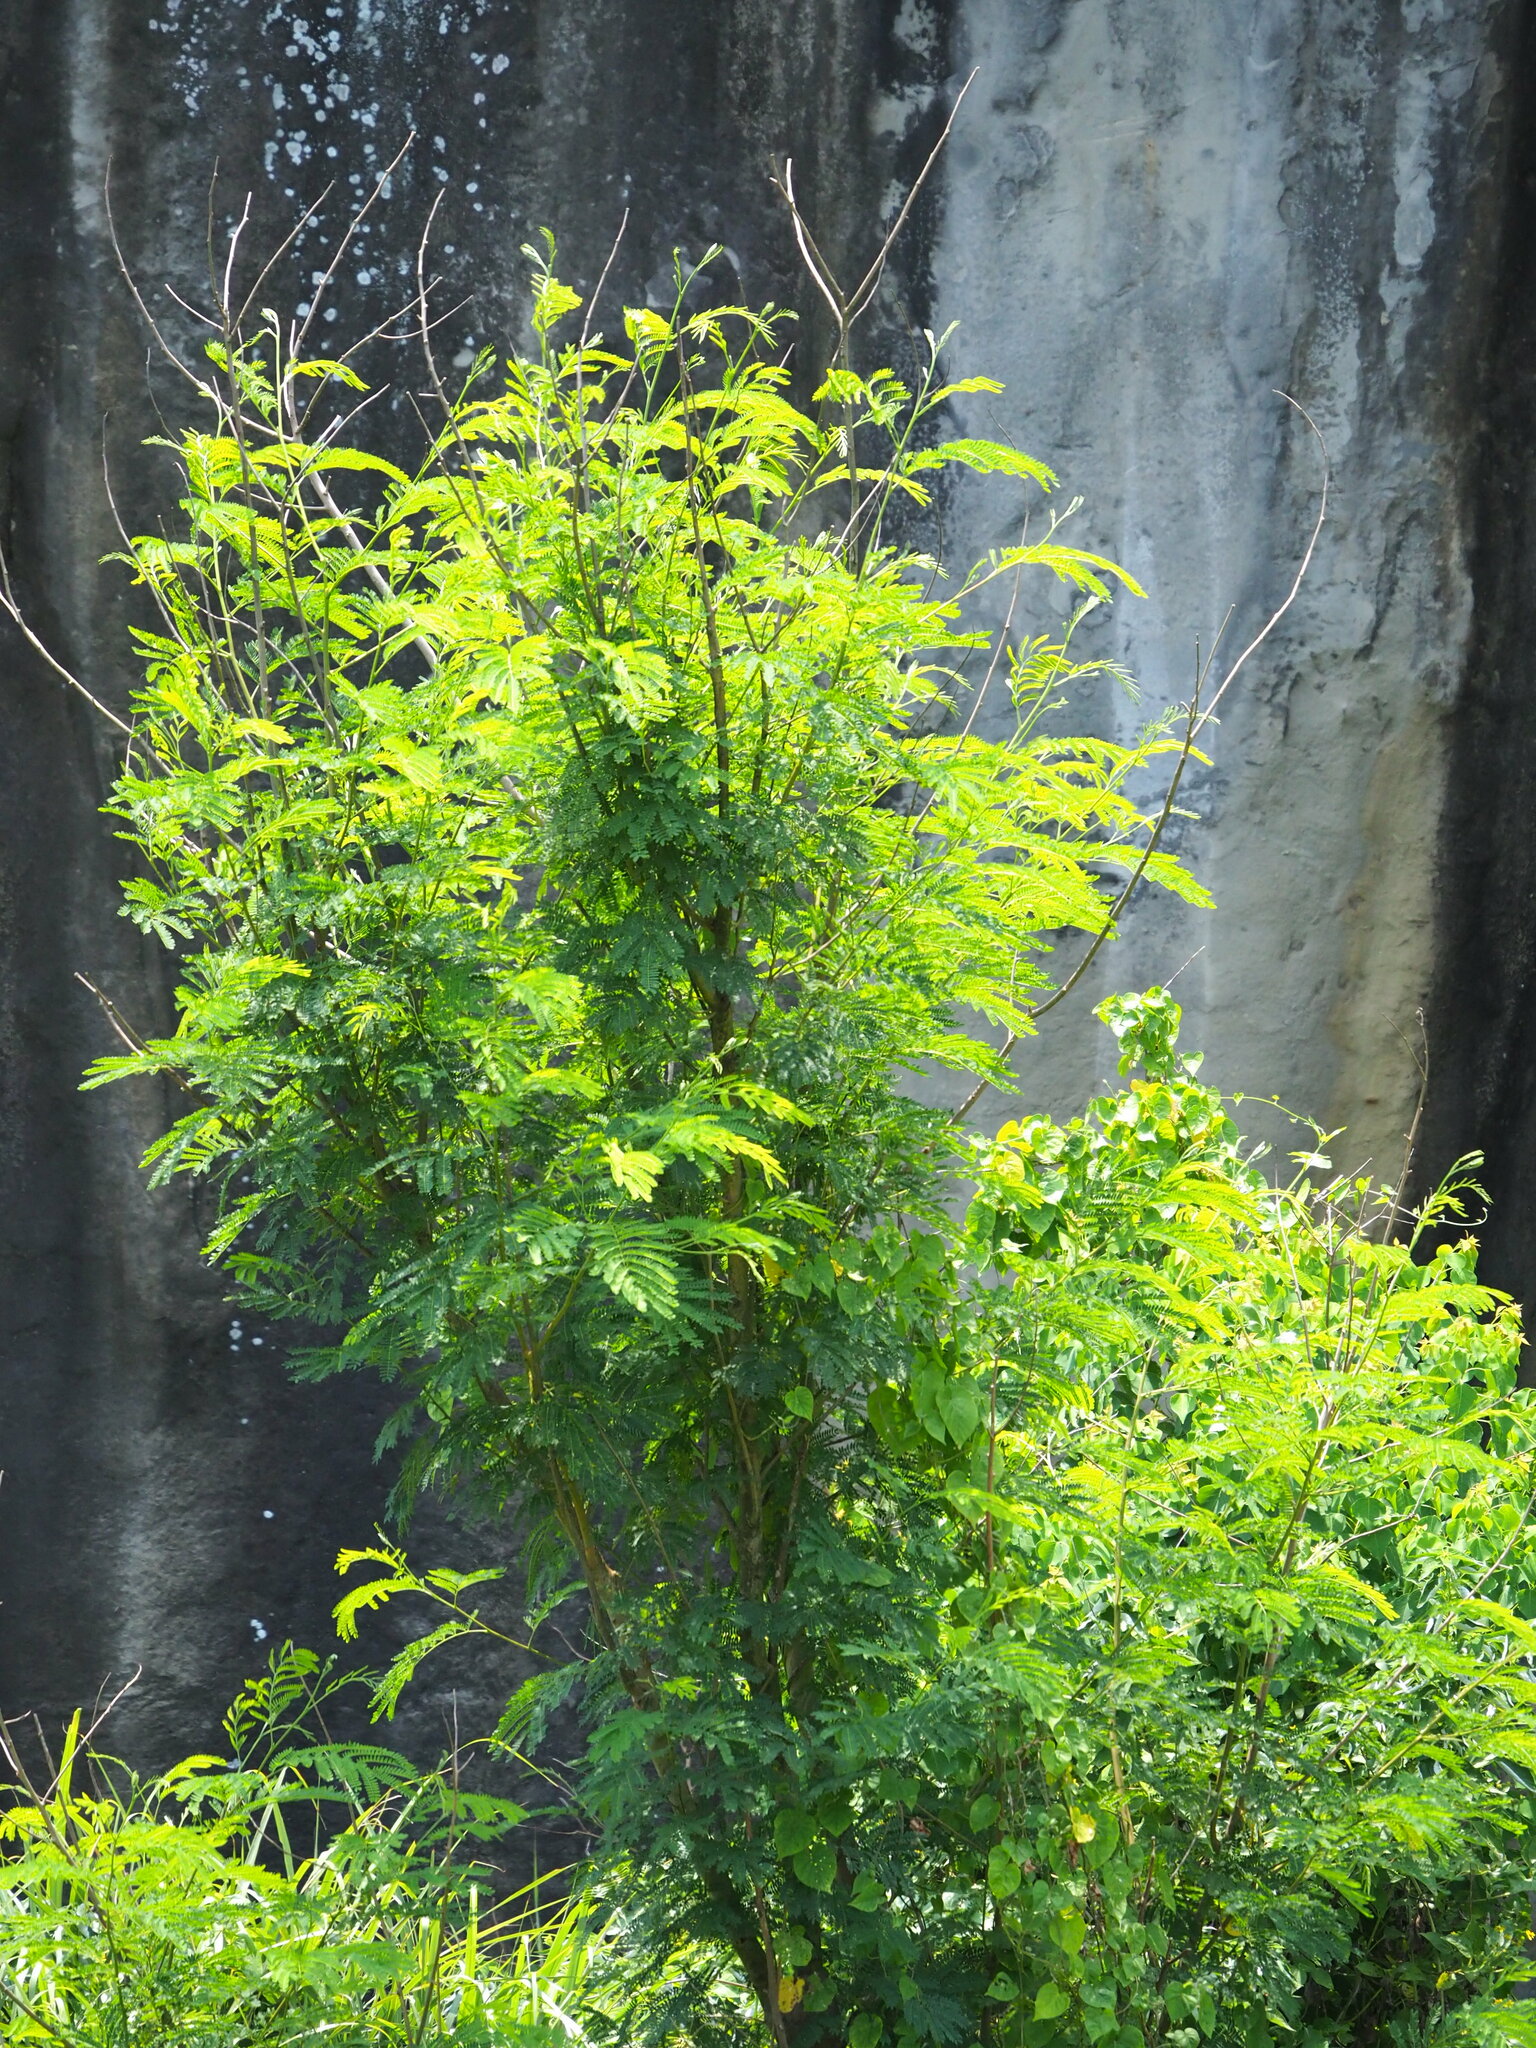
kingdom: Plantae
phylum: Tracheophyta
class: Magnoliopsida
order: Fabales
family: Fabaceae
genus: Leucaena
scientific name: Leucaena leucocephala
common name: White leadtree
